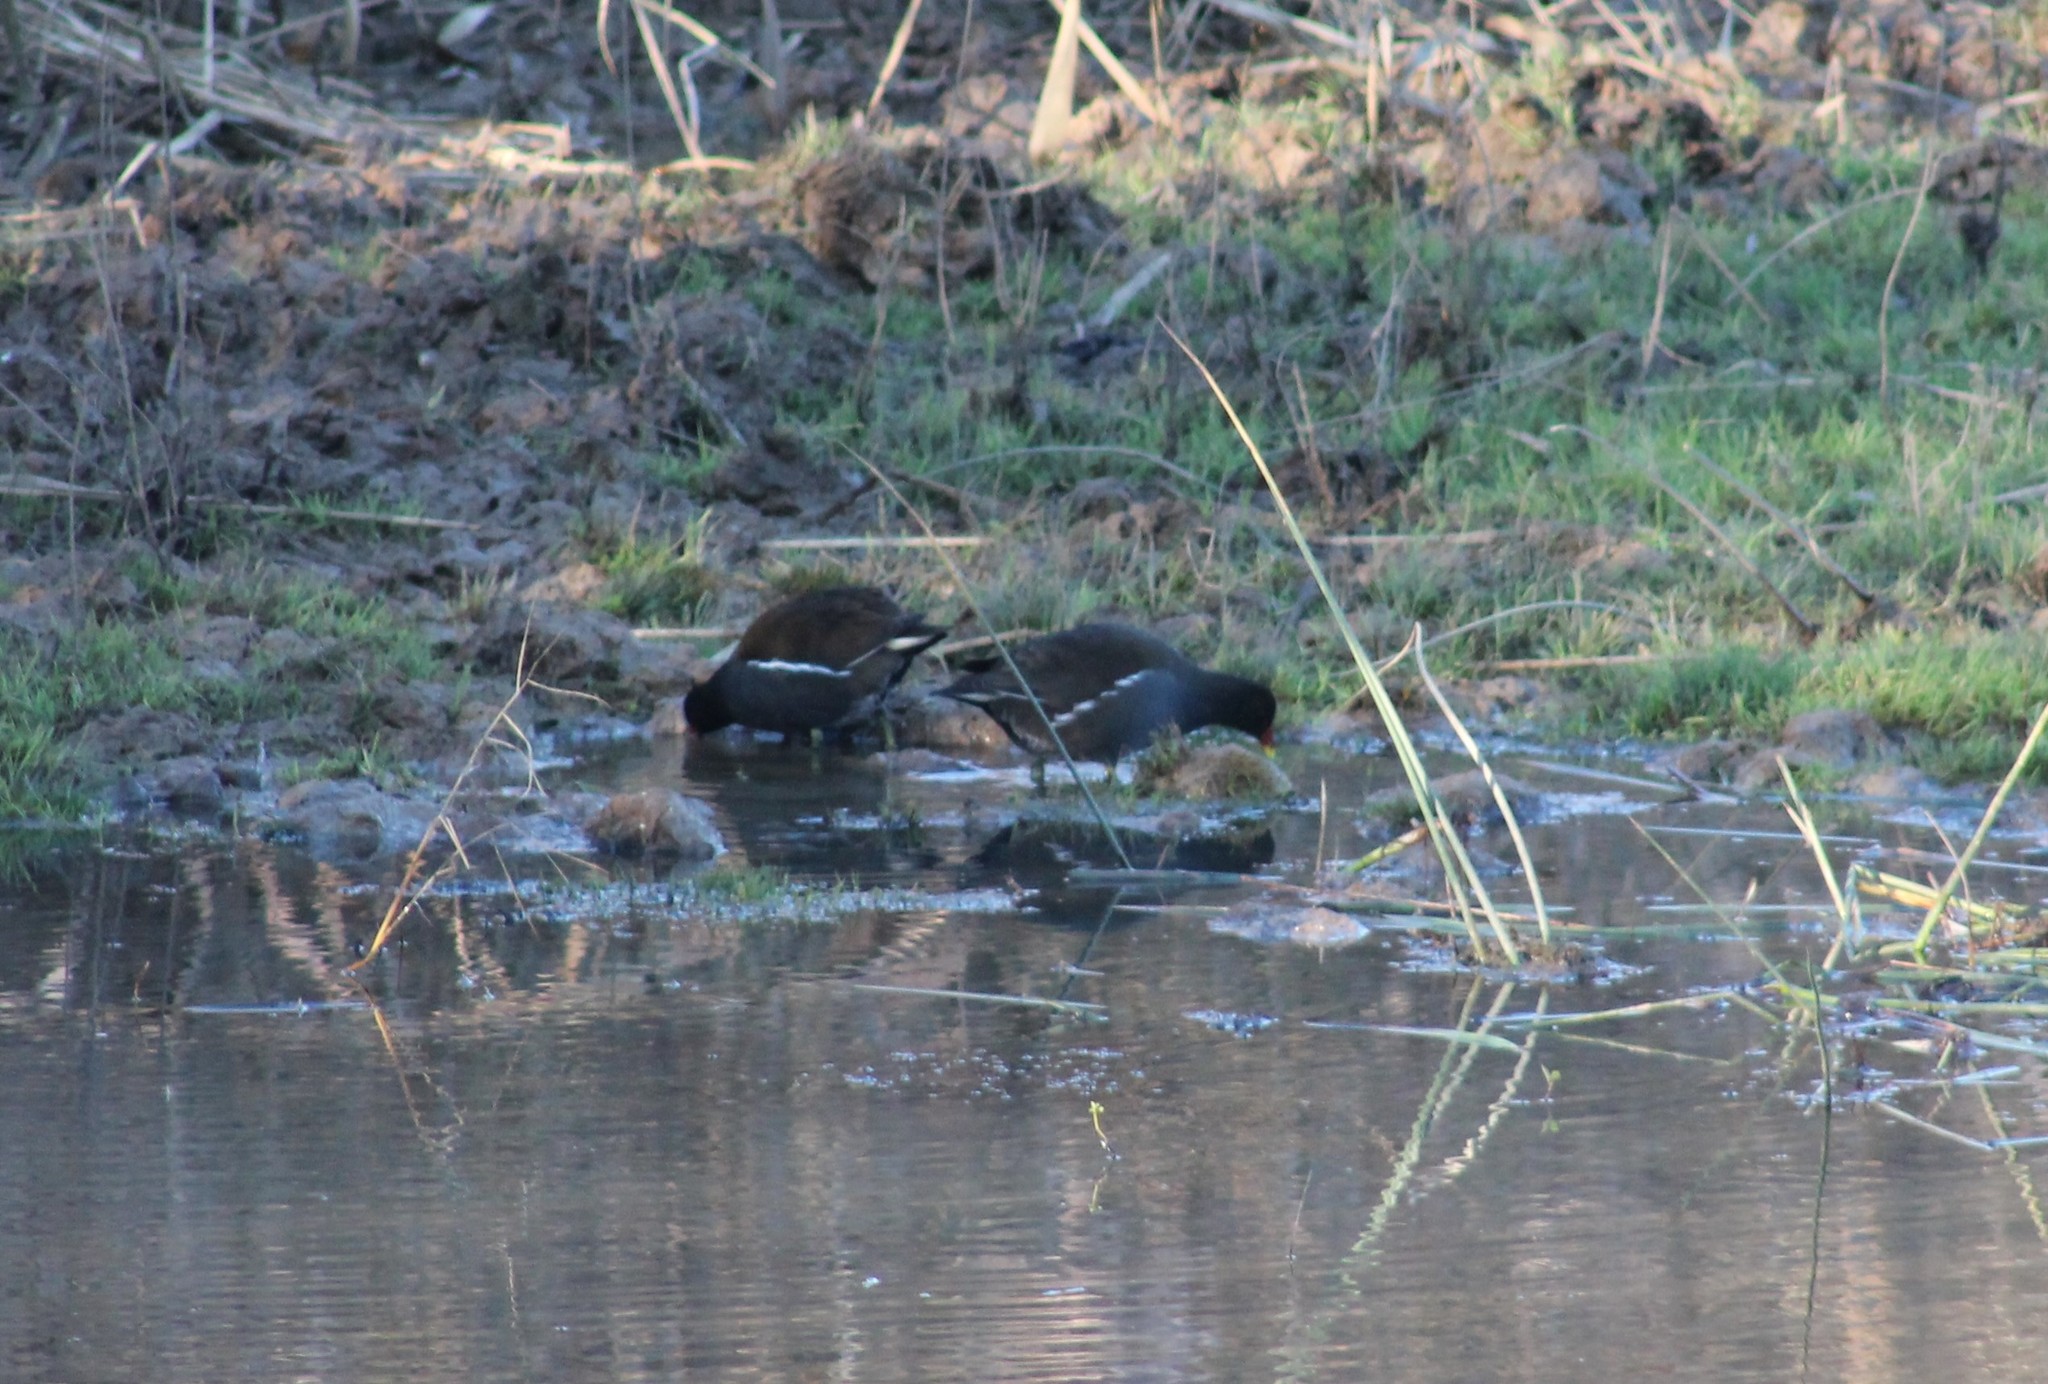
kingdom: Animalia
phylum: Chordata
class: Aves
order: Gruiformes
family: Rallidae
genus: Gallinula
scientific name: Gallinula chloropus
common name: Common moorhen
